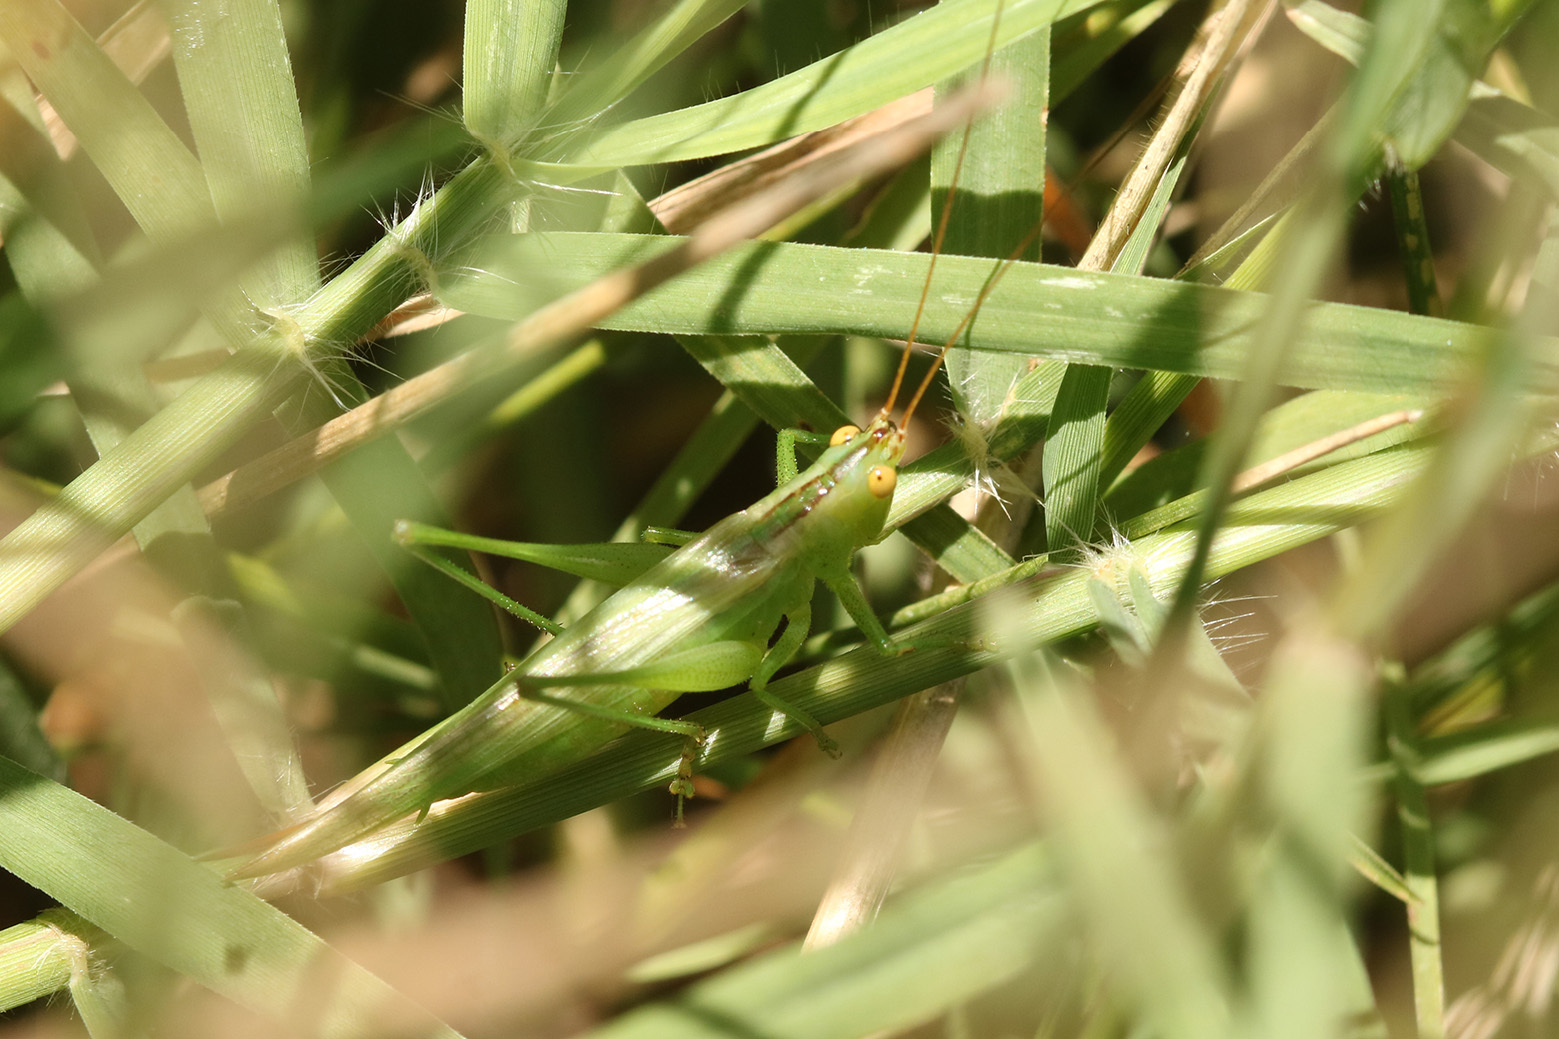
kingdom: Animalia
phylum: Arthropoda
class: Insecta
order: Orthoptera
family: Tettigoniidae
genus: Conocephalus
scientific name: Conocephalus longipes
